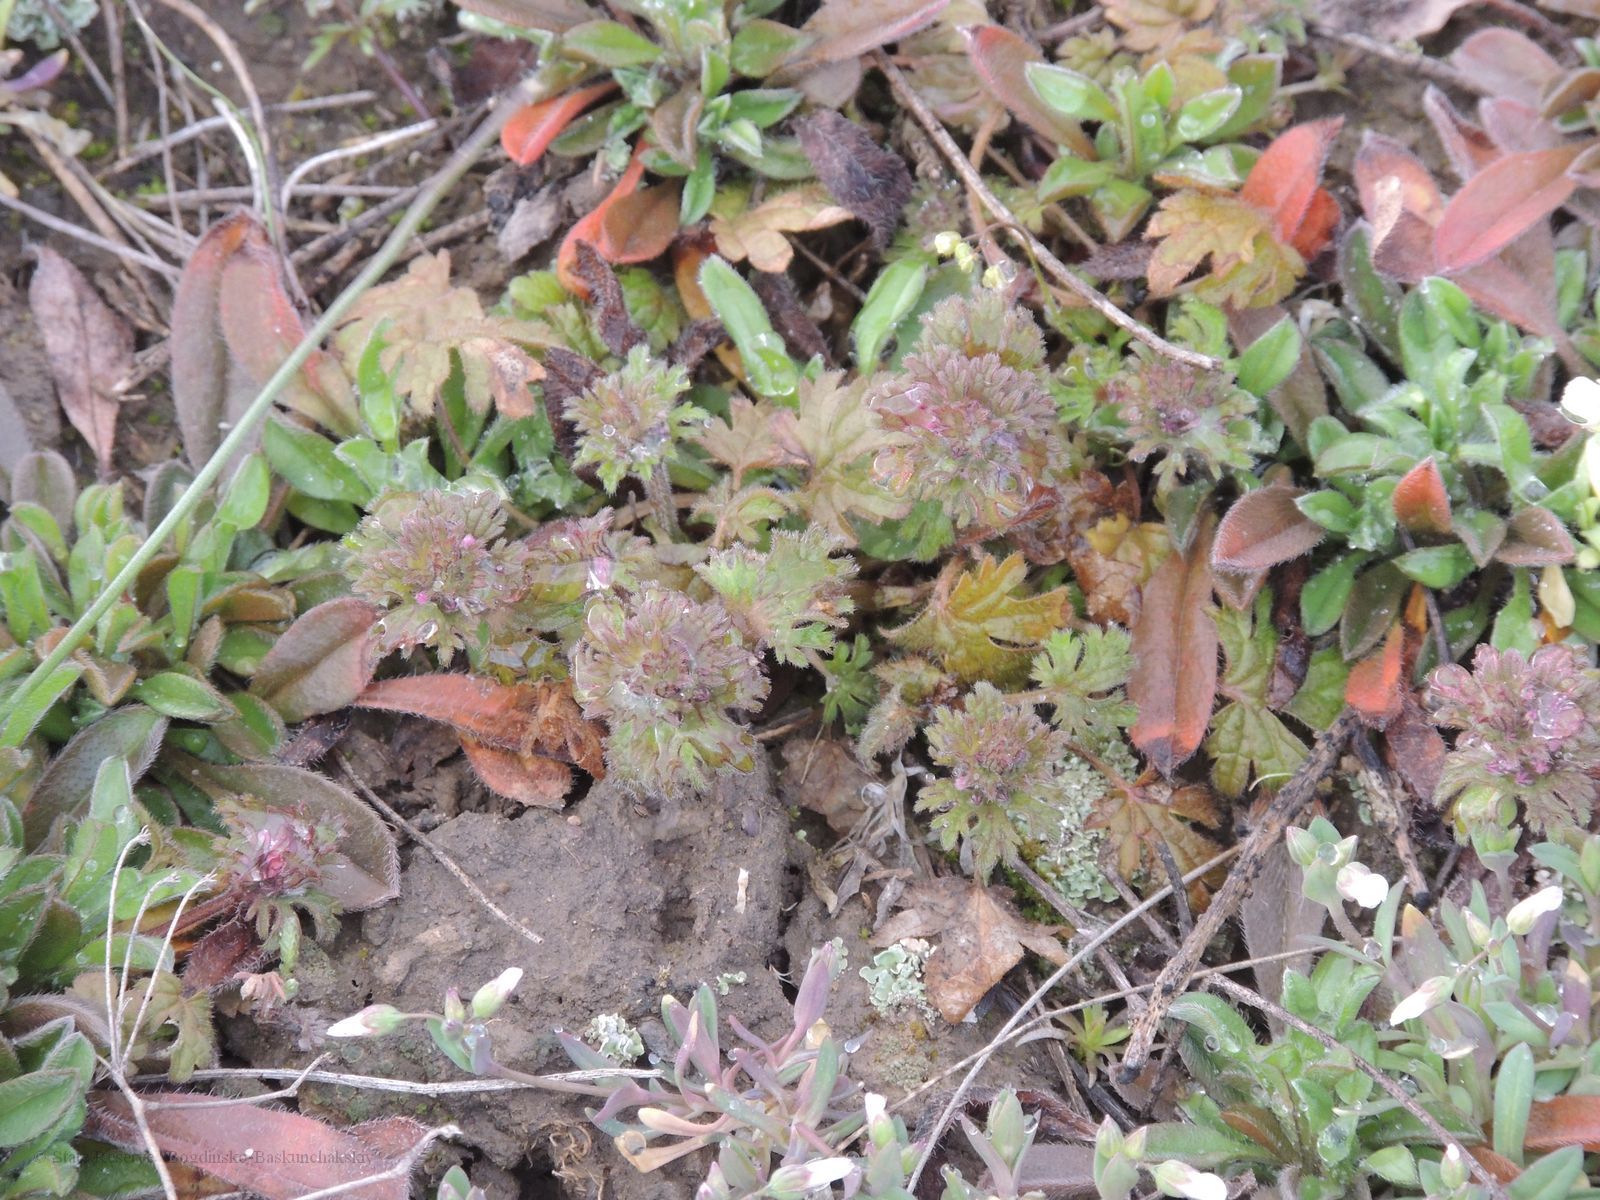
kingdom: Plantae
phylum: Tracheophyta
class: Magnoliopsida
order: Lamiales
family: Lamiaceae
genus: Lamium
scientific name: Lamium amplexicaule
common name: Henbit dead-nettle
